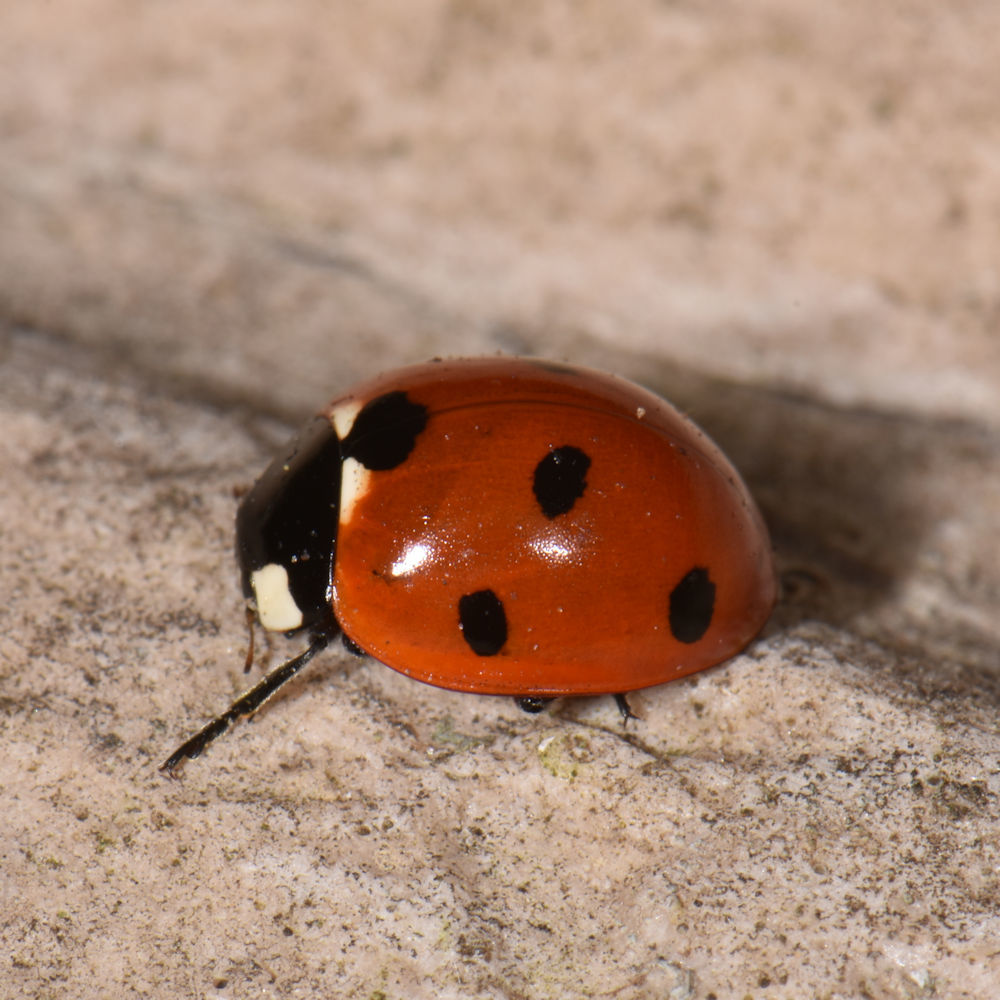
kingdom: Animalia
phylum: Arthropoda
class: Insecta
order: Coleoptera
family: Coccinellidae
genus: Coccinella
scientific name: Coccinella septempunctata
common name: Sevenspotted lady beetle
